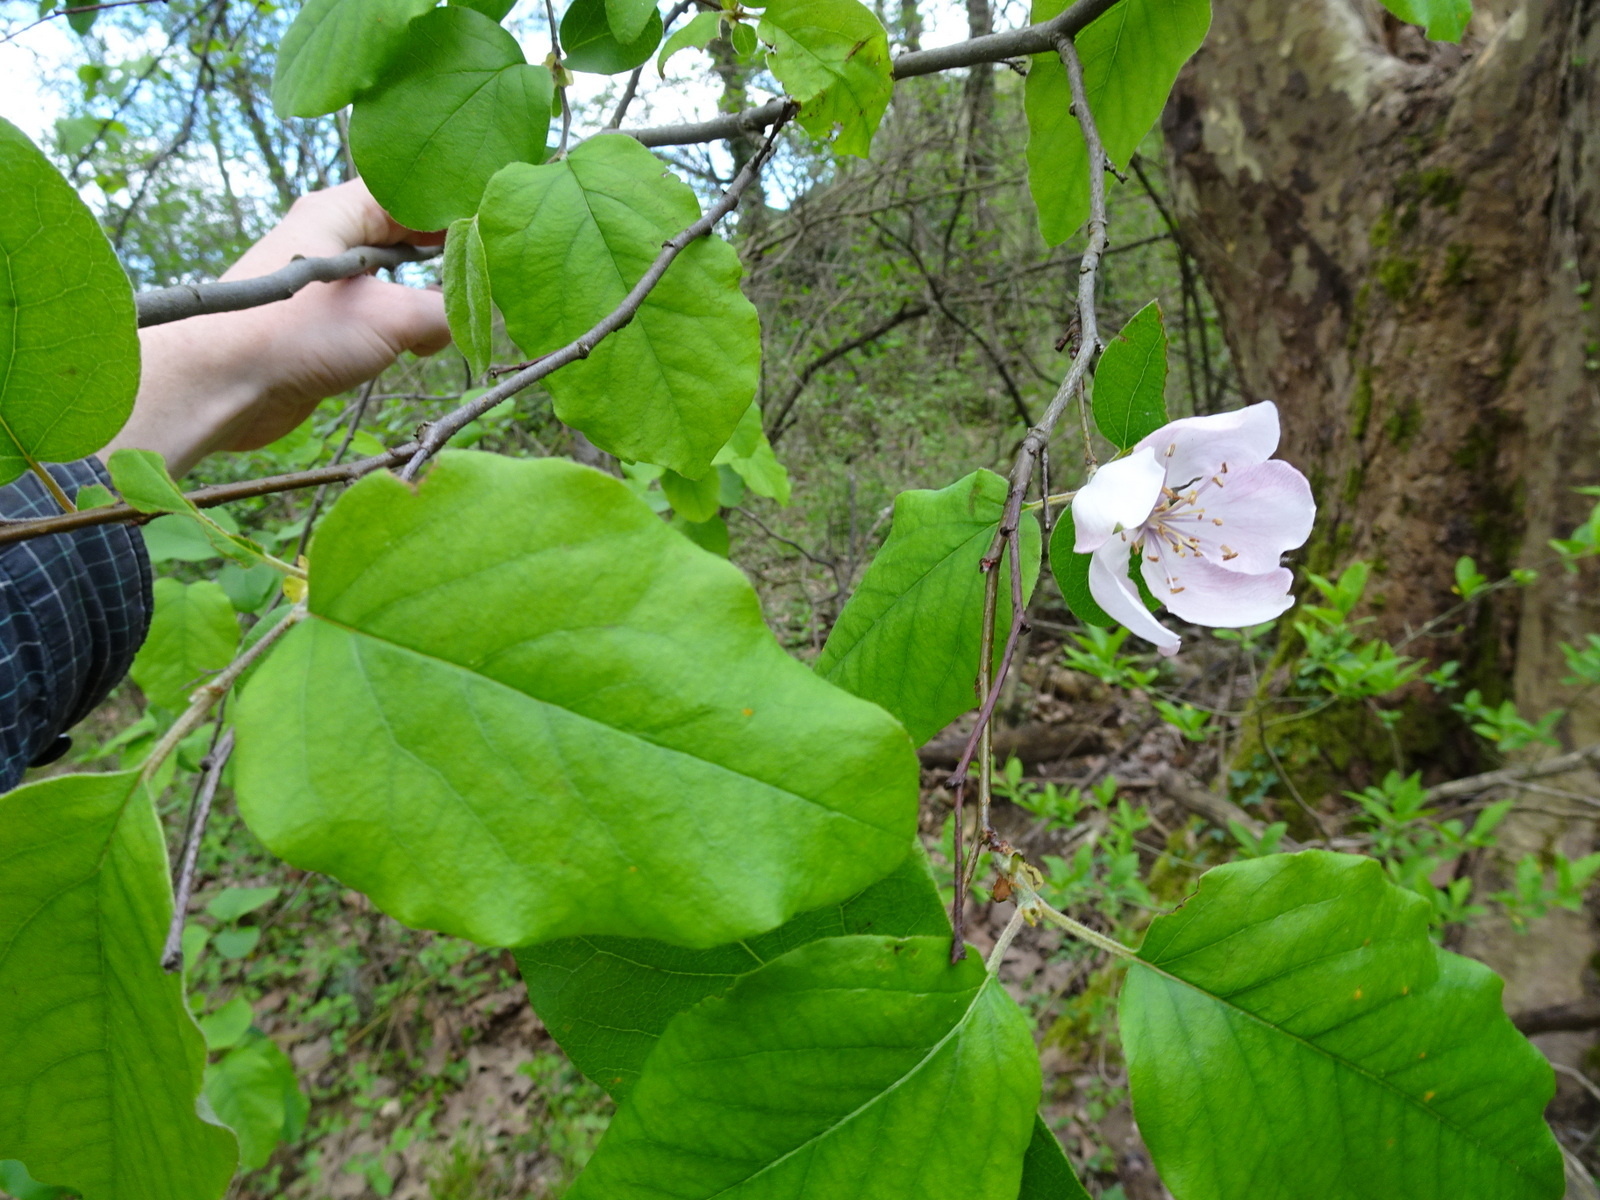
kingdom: Plantae
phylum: Tracheophyta
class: Magnoliopsida
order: Rosales
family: Rosaceae
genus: Cydonia
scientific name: Cydonia oblonga
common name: Quince
